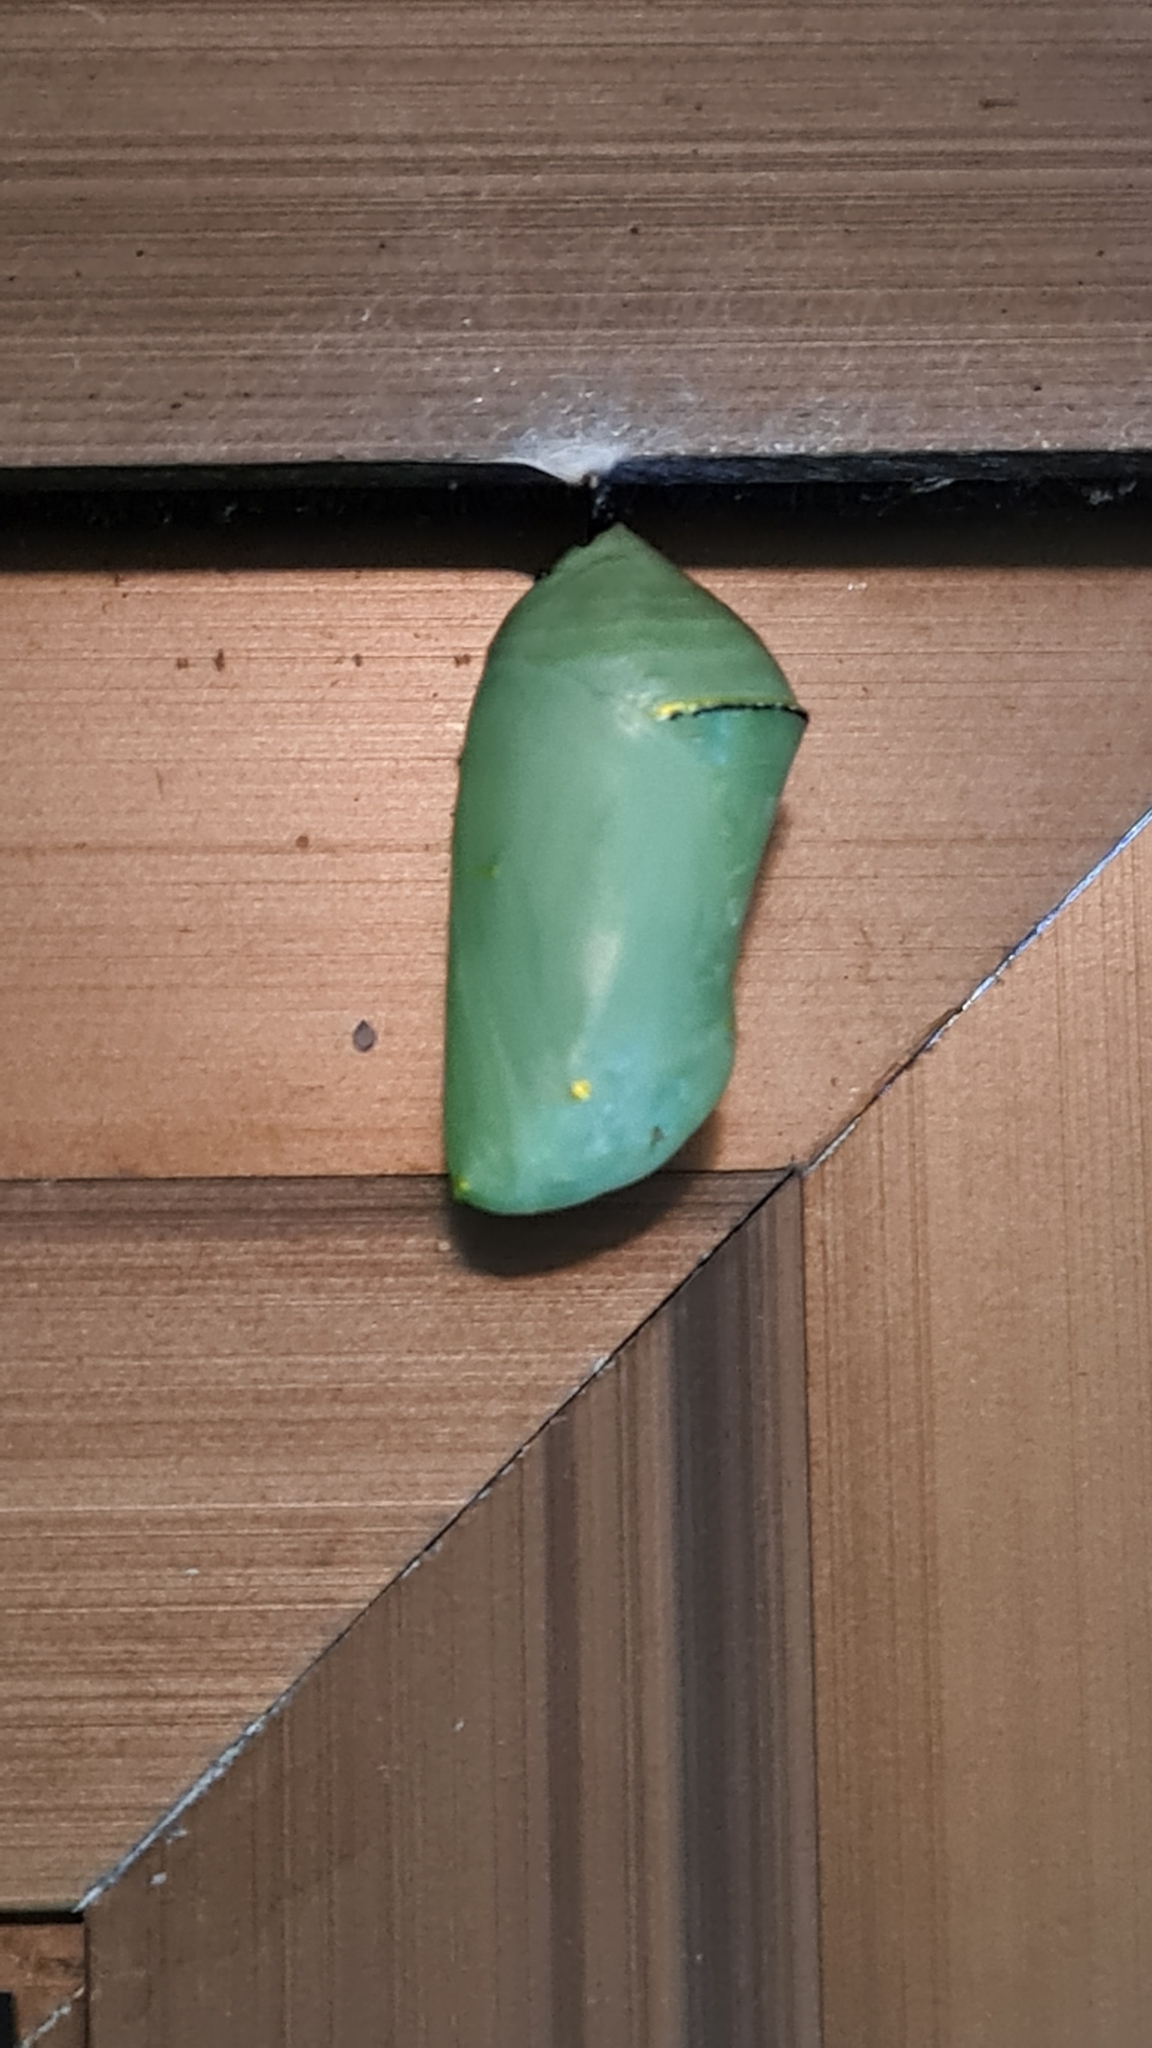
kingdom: Animalia
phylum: Arthropoda
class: Insecta
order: Lepidoptera
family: Nymphalidae
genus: Danaus
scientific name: Danaus erippus
